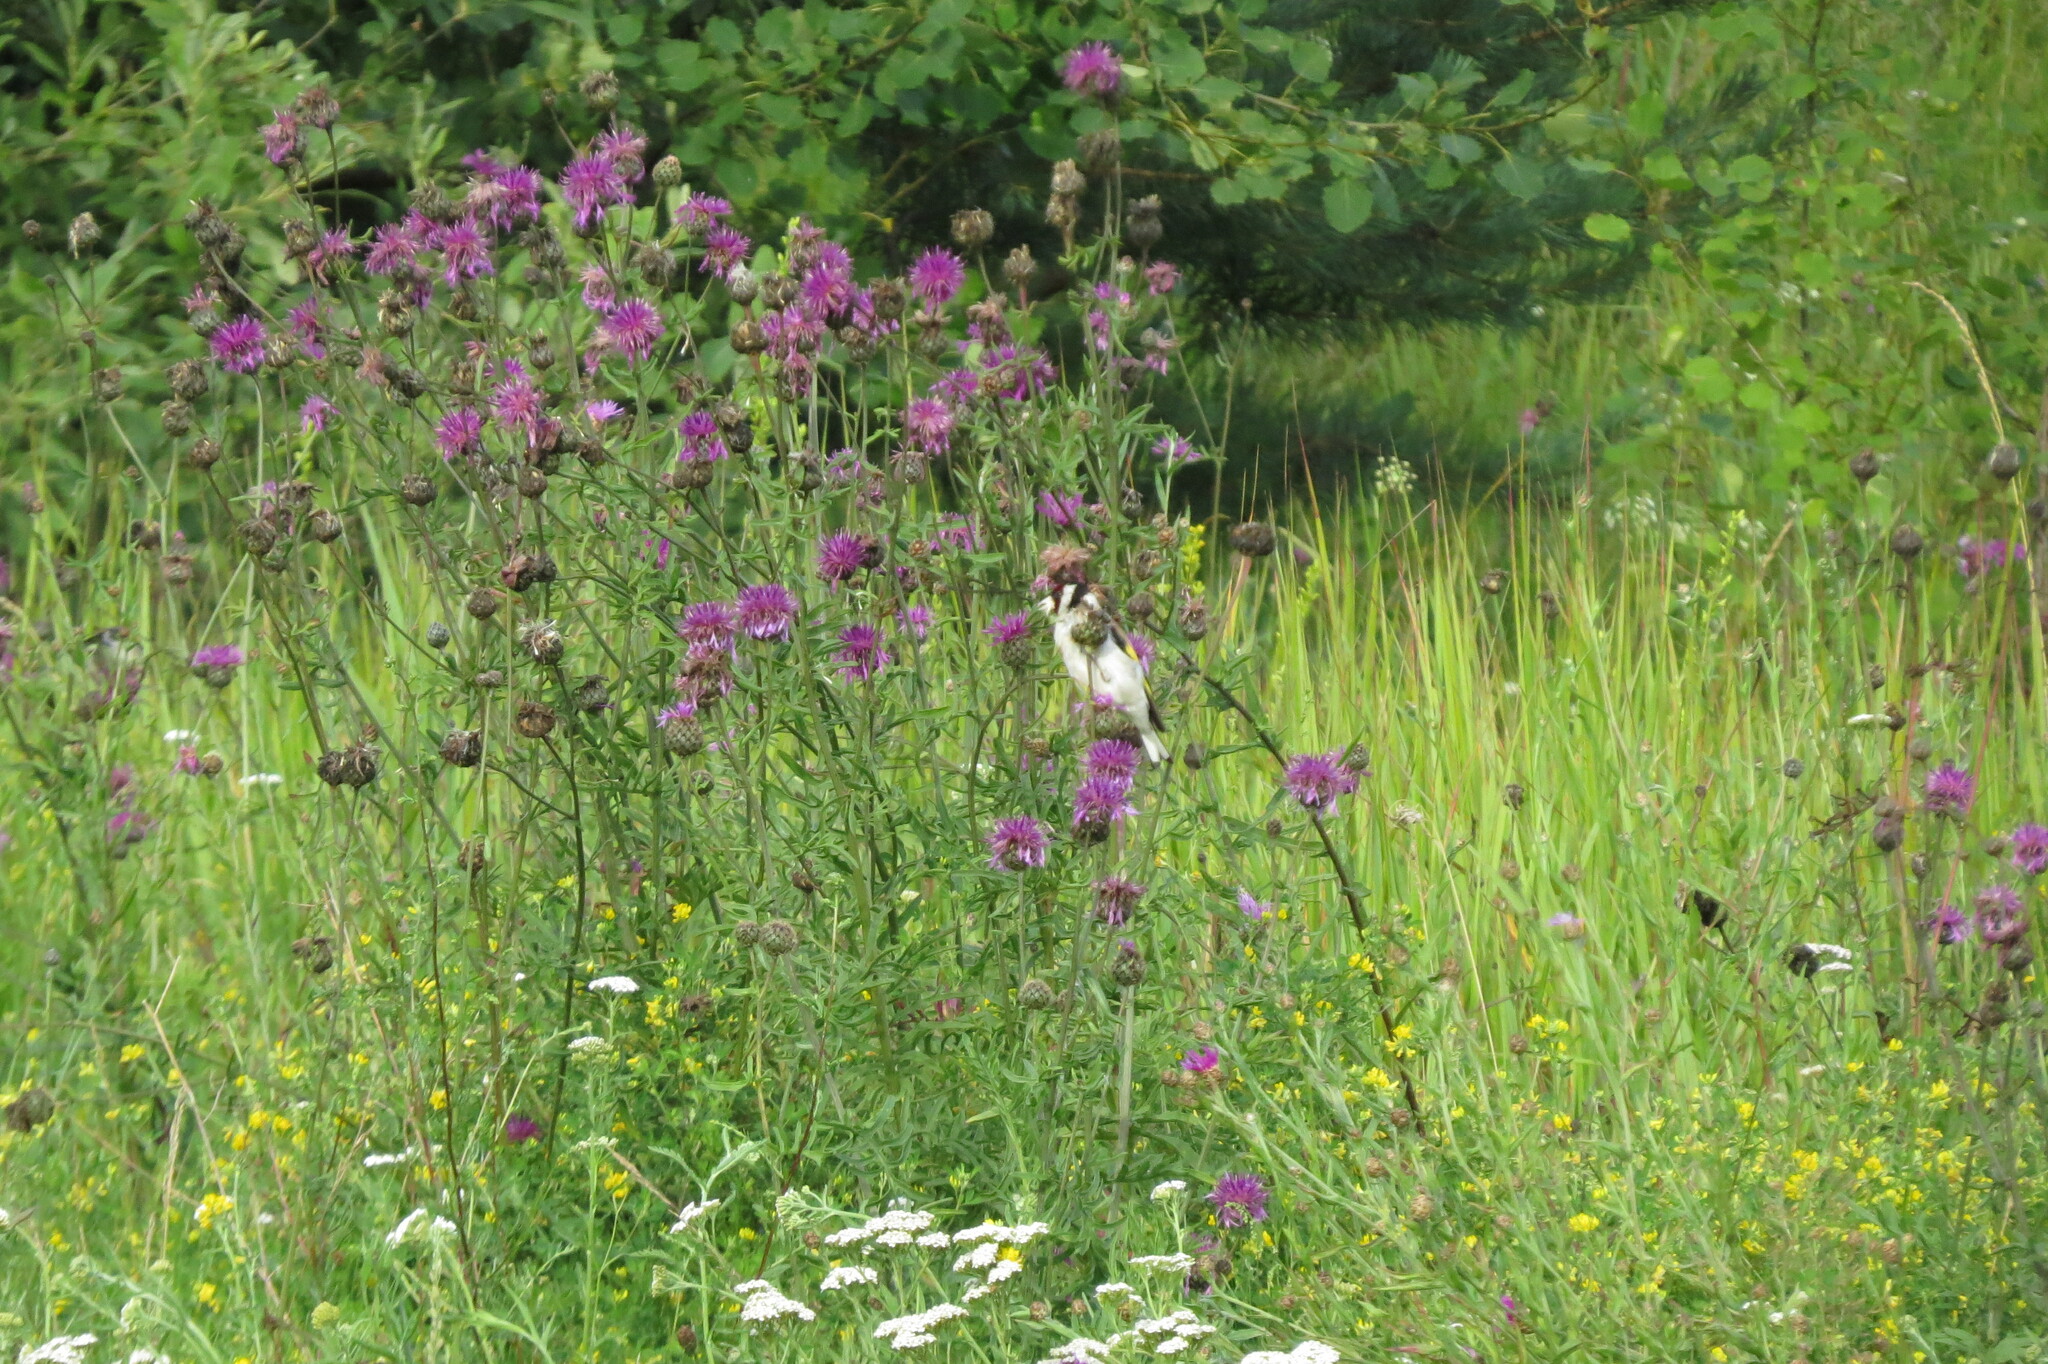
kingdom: Animalia
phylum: Chordata
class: Aves
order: Passeriformes
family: Fringillidae
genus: Carduelis
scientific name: Carduelis carduelis
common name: European goldfinch
